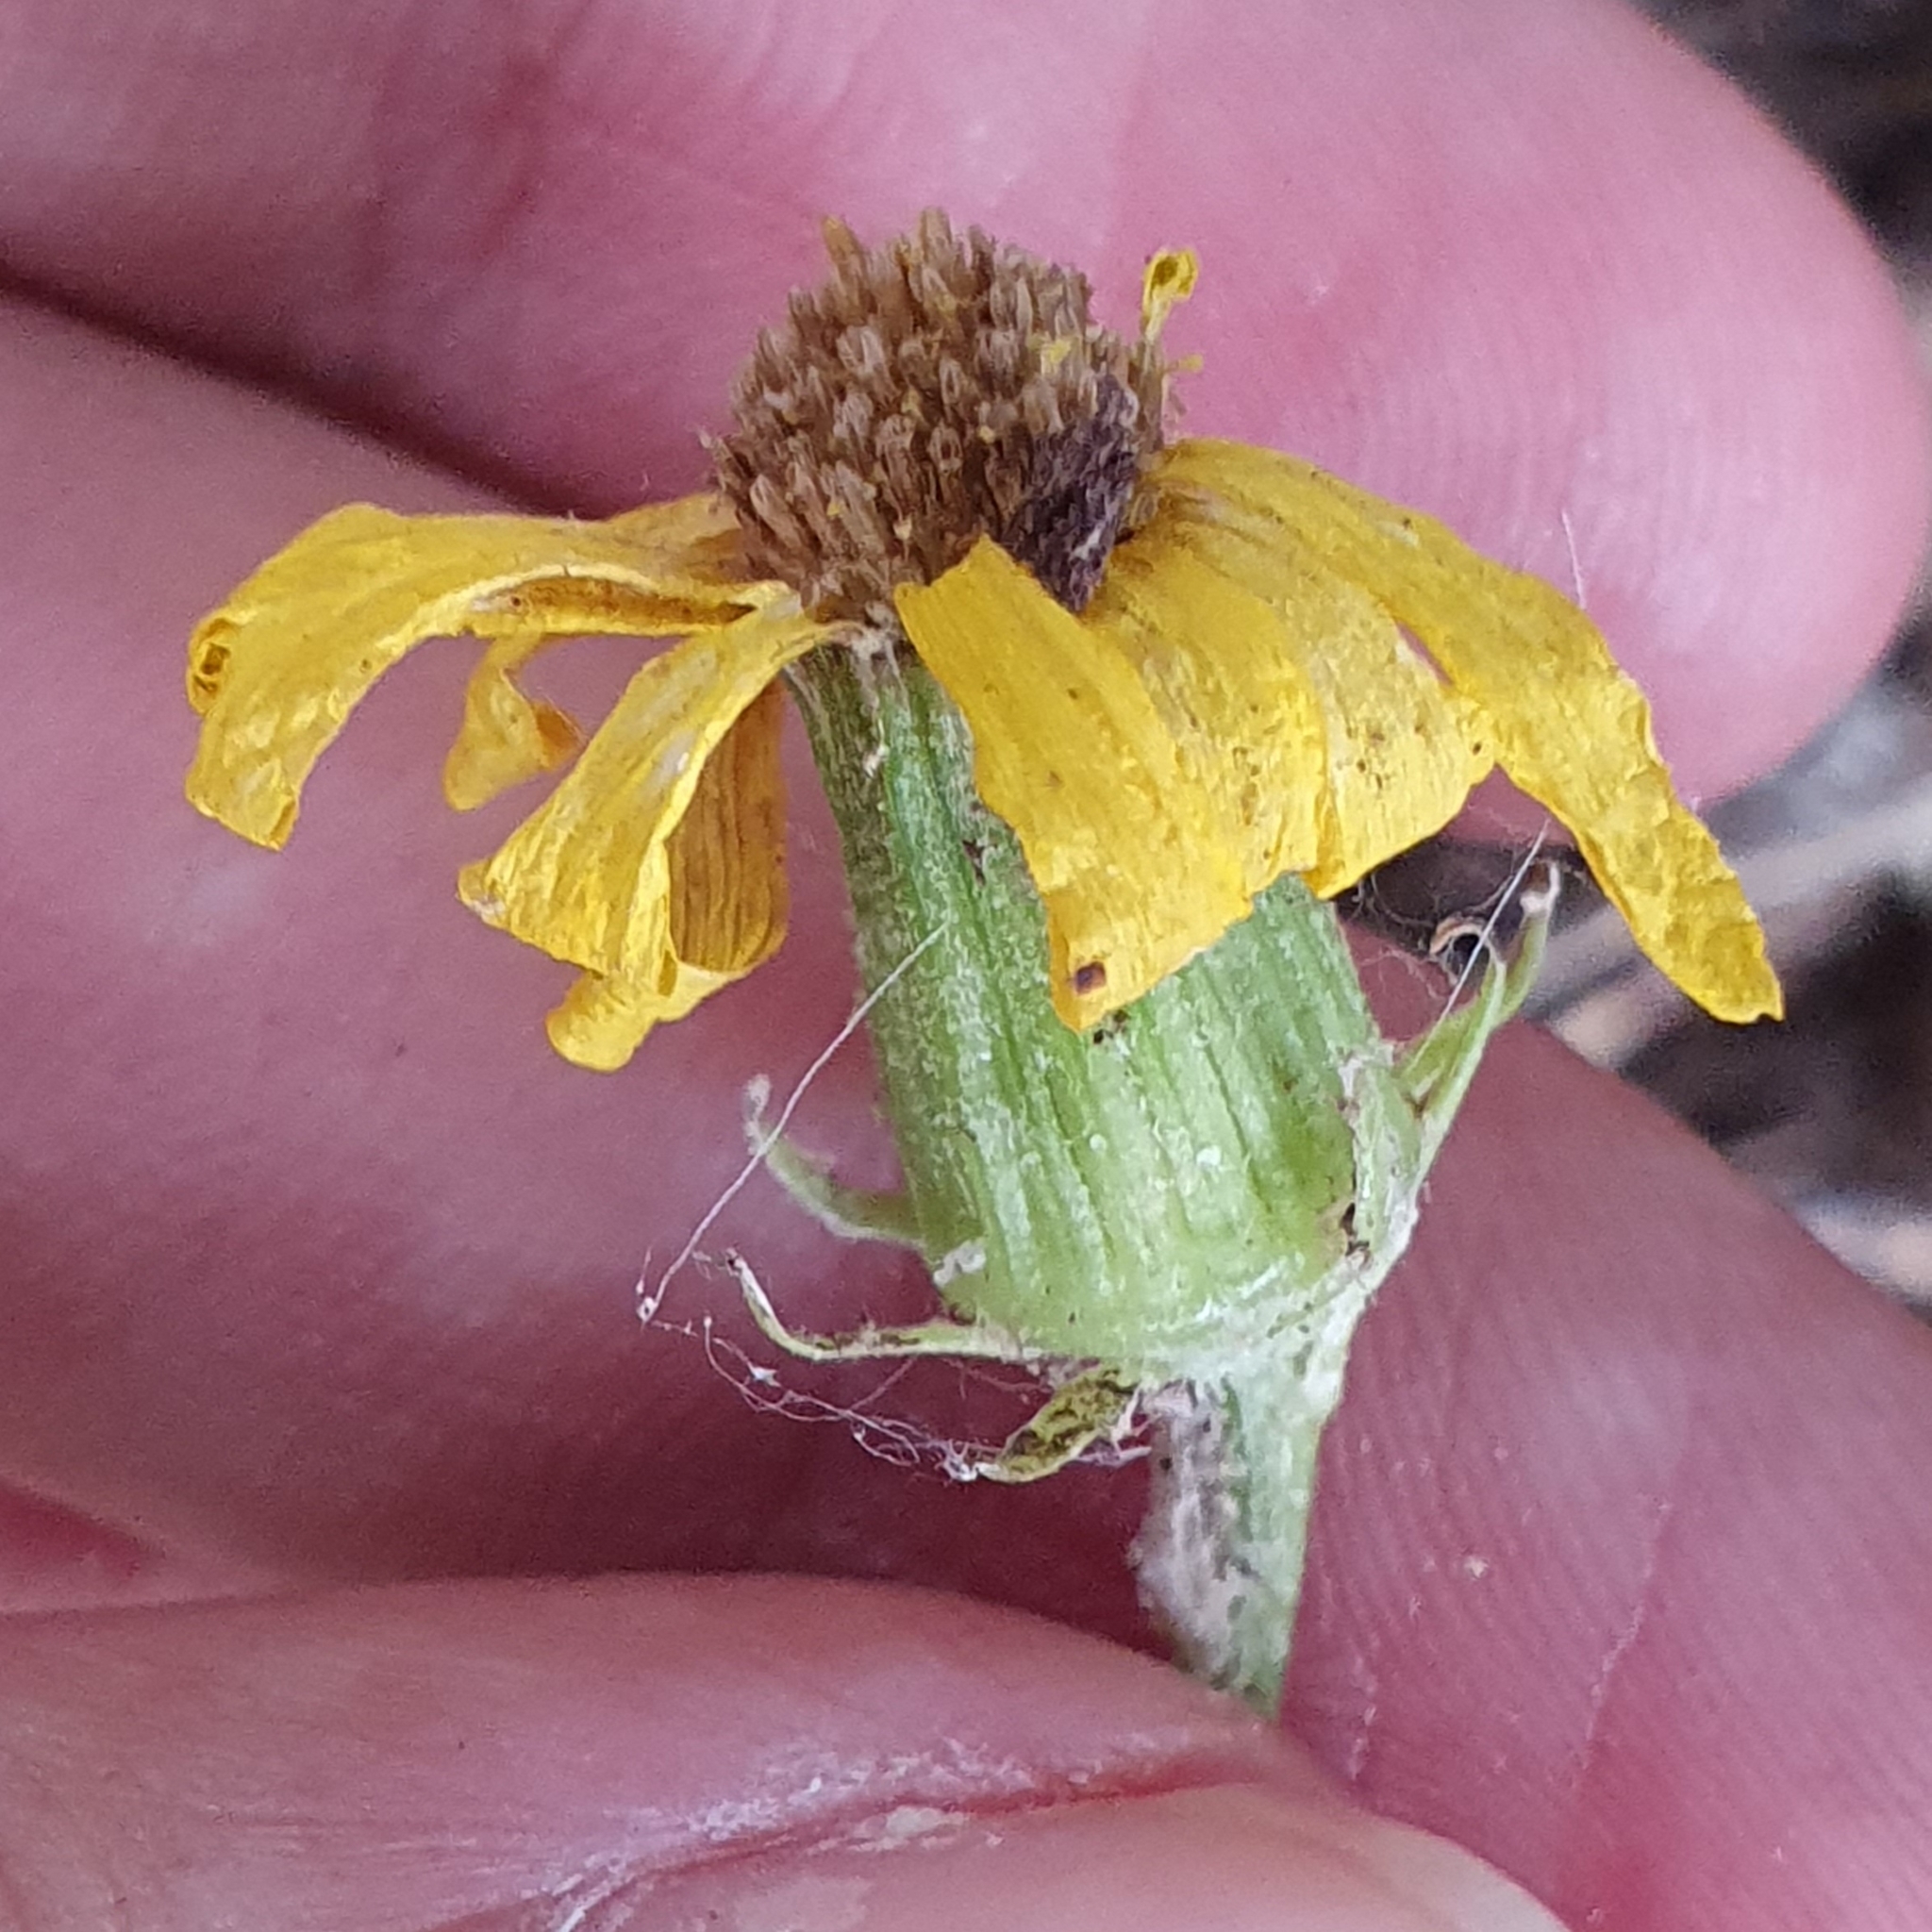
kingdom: Plantae
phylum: Tracheophyta
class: Magnoliopsida
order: Asterales
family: Asteraceae
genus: Senecio
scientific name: Senecio perralderianus
